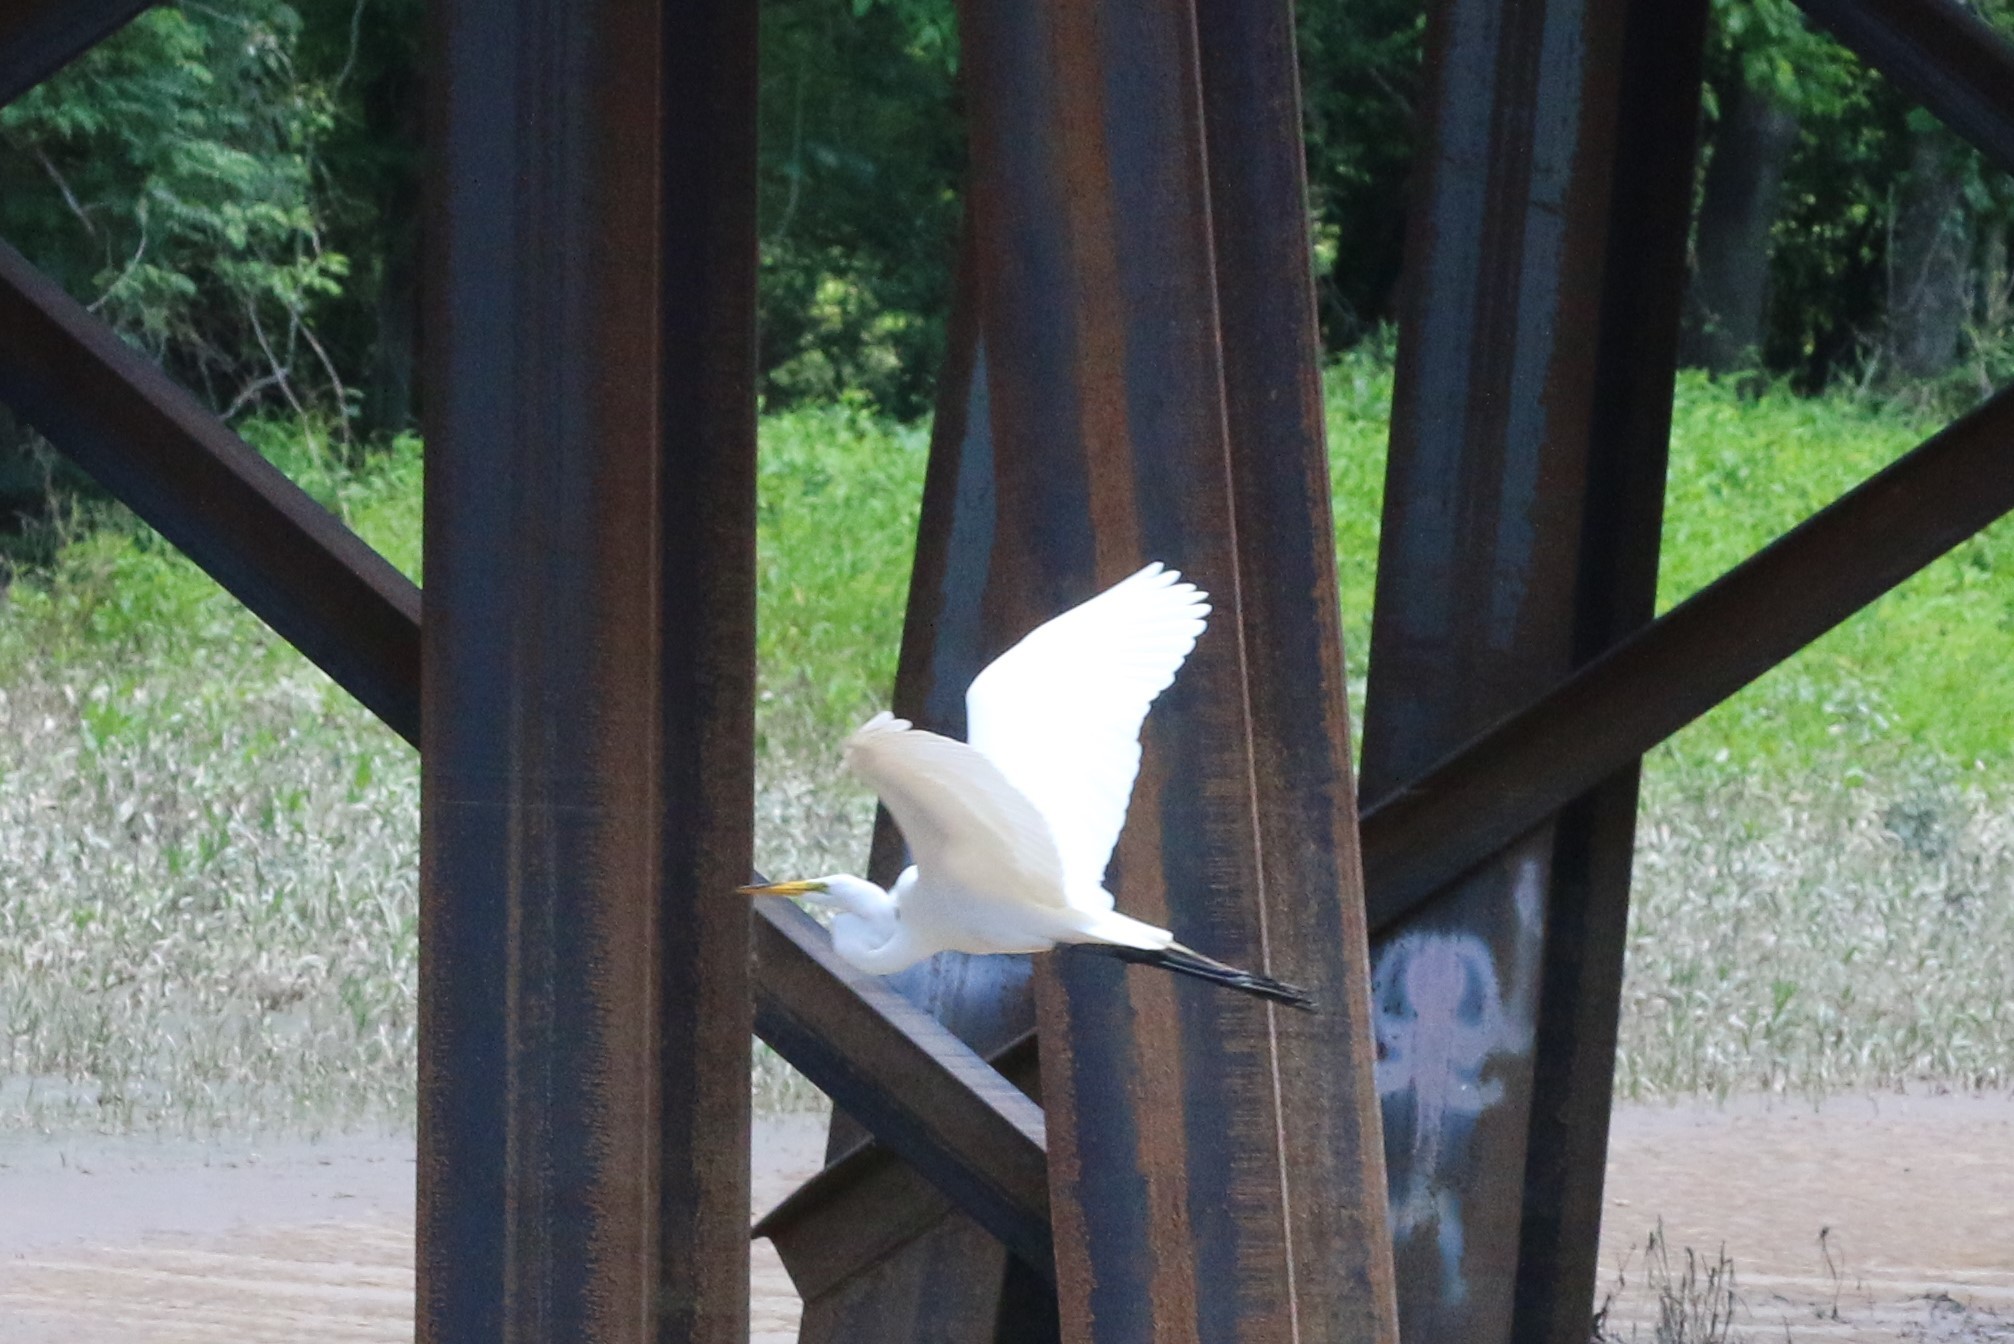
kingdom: Animalia
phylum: Chordata
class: Aves
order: Pelecaniformes
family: Ardeidae
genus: Ardea
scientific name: Ardea alba
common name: Great egret
